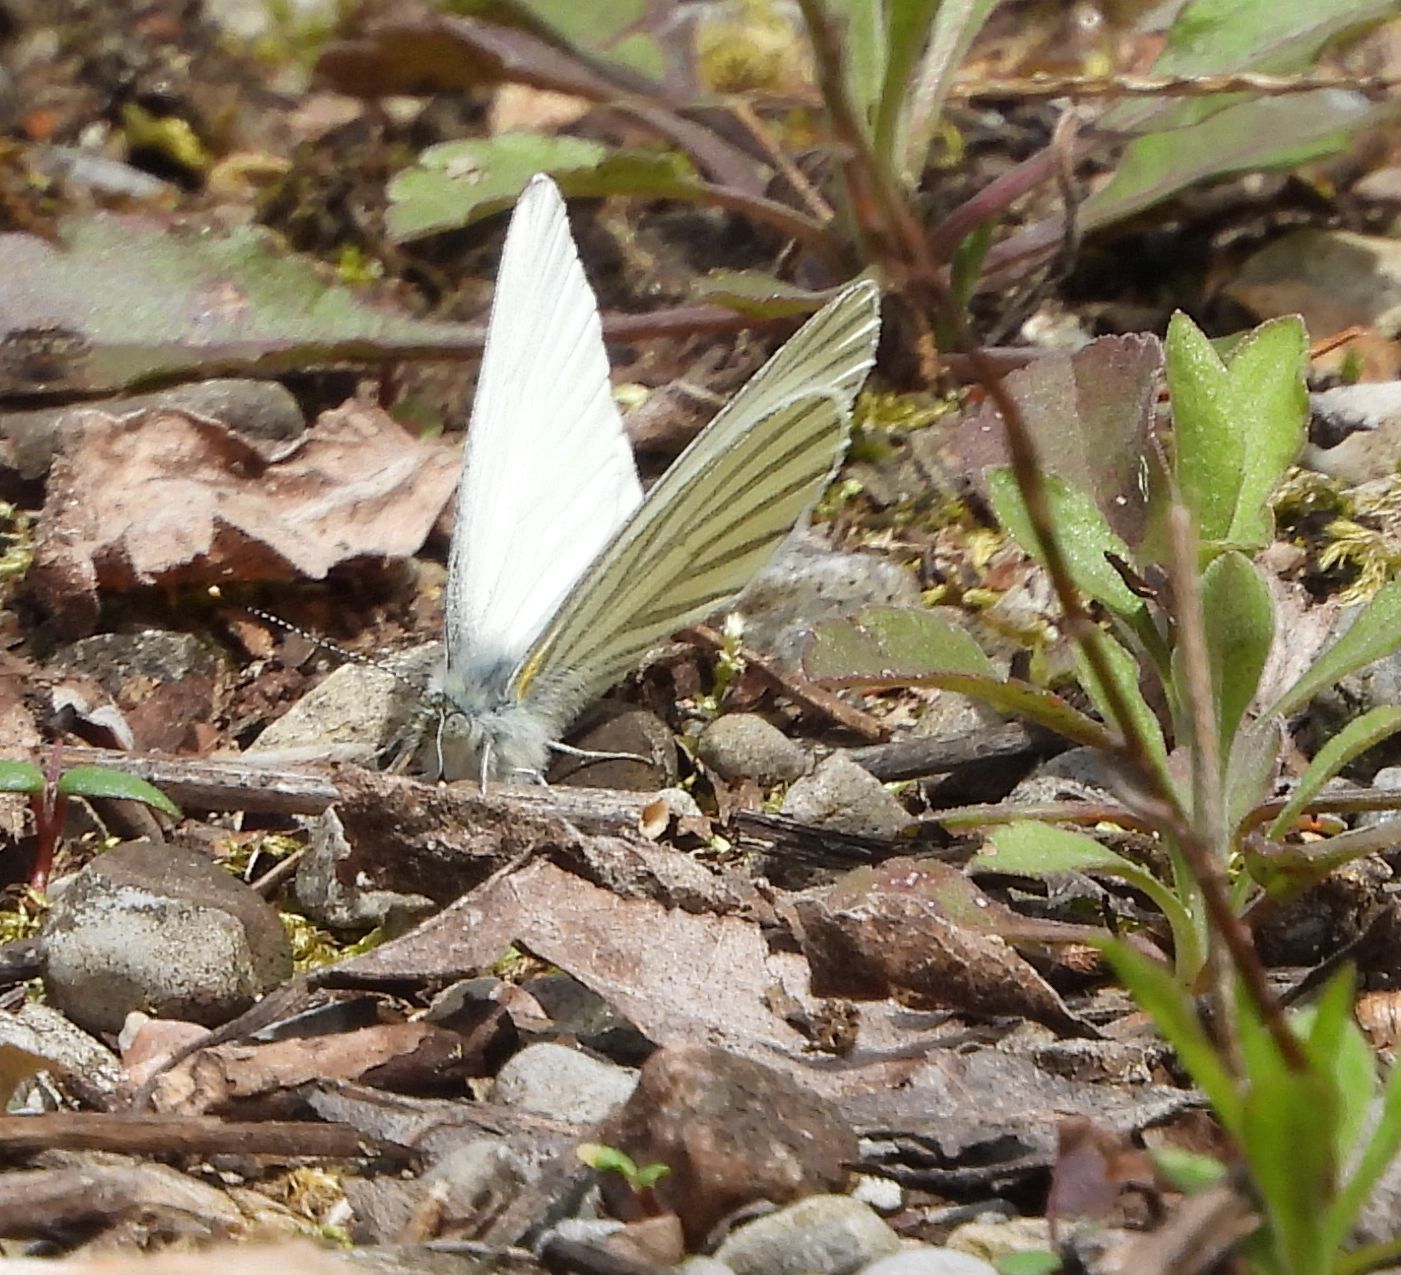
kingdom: Animalia
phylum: Arthropoda
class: Insecta
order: Lepidoptera
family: Pieridae
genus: Pieris
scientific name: Pieris oleracea
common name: Mustard white
